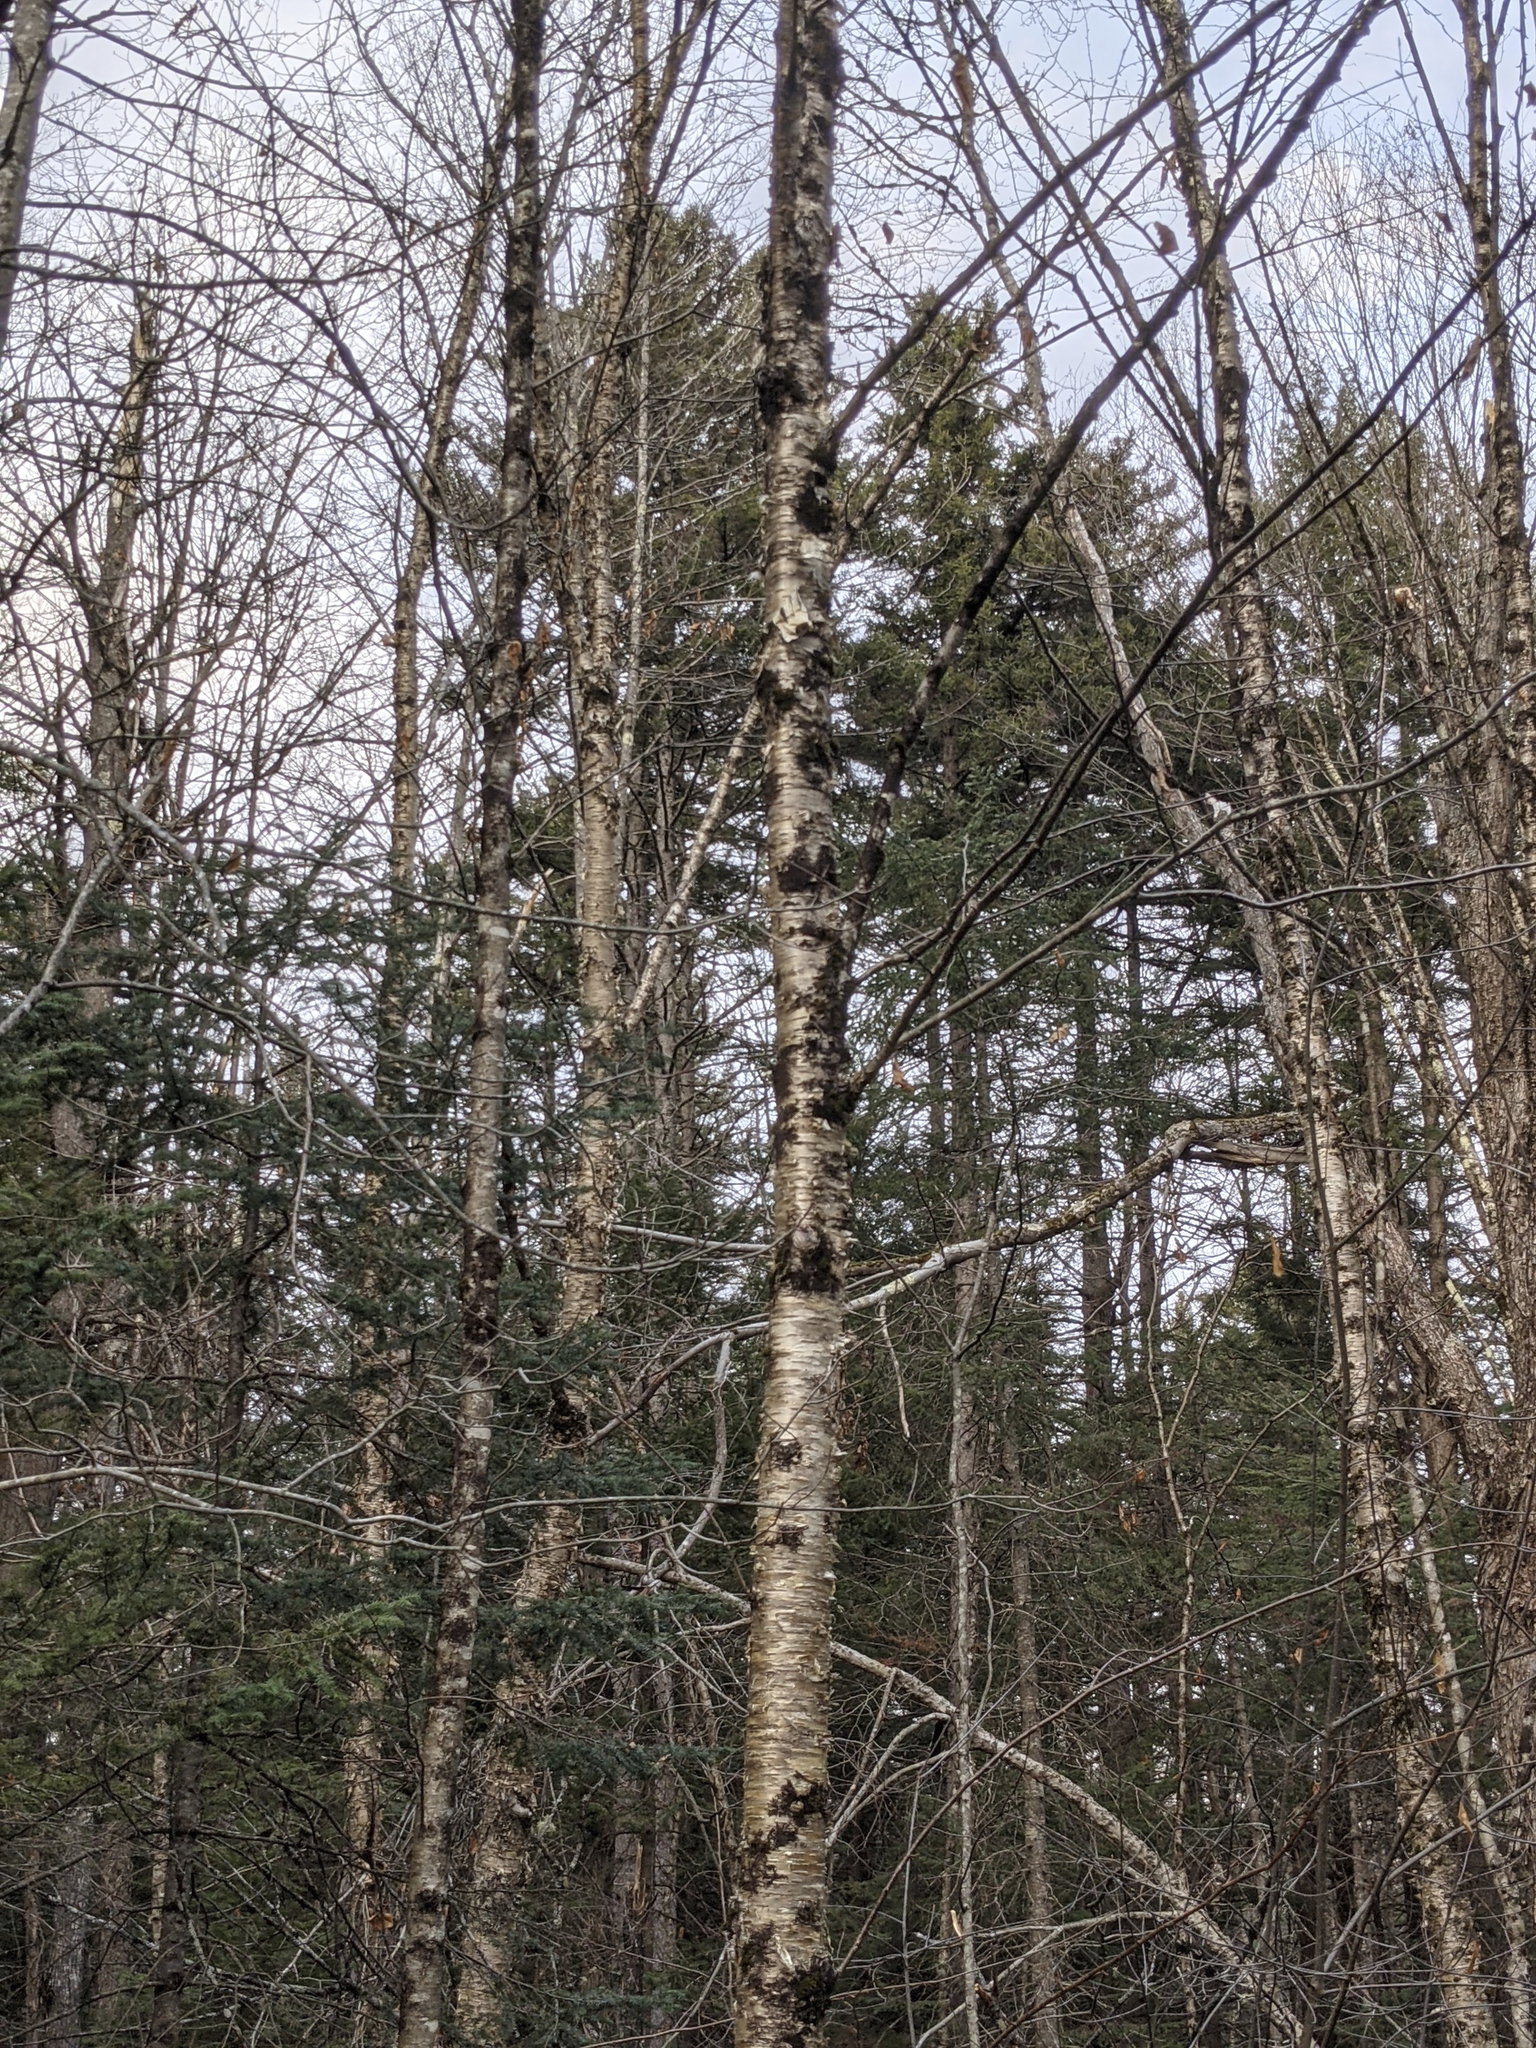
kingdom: Plantae
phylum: Tracheophyta
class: Magnoliopsida
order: Fagales
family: Betulaceae
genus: Betula
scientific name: Betula alleghaniensis
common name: Yellow birch
